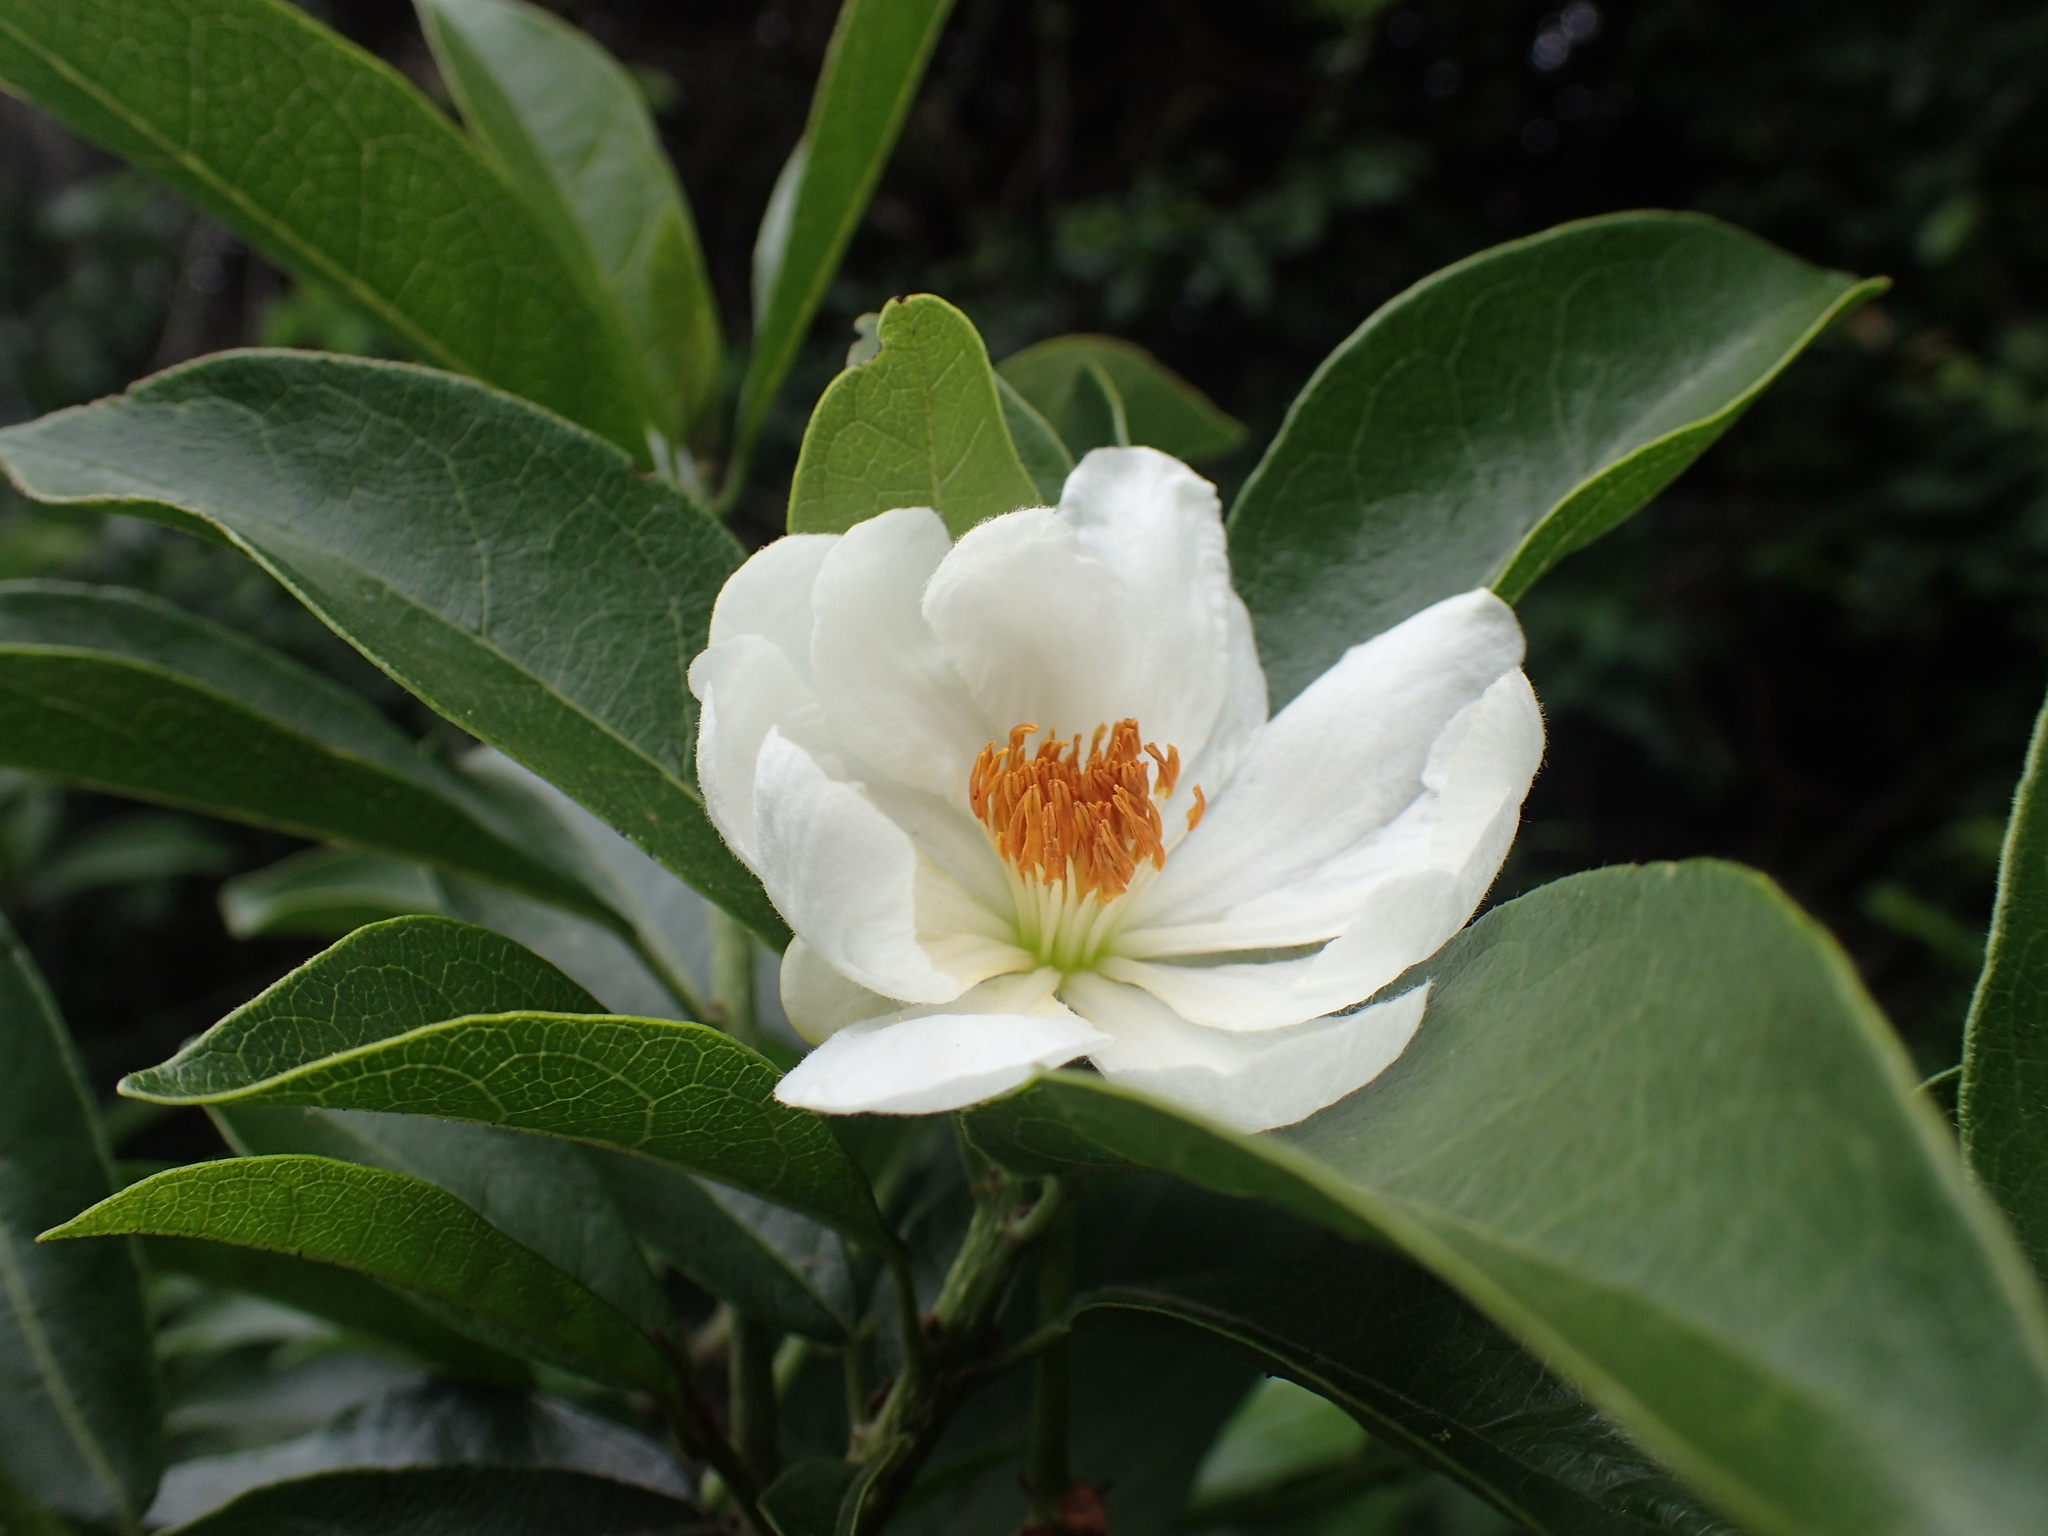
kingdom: Plantae
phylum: Tracheophyta
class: Magnoliopsida
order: Malpighiales
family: Achariaceae
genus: Xylotheca
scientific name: Xylotheca kraussiana
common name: African dog rose
